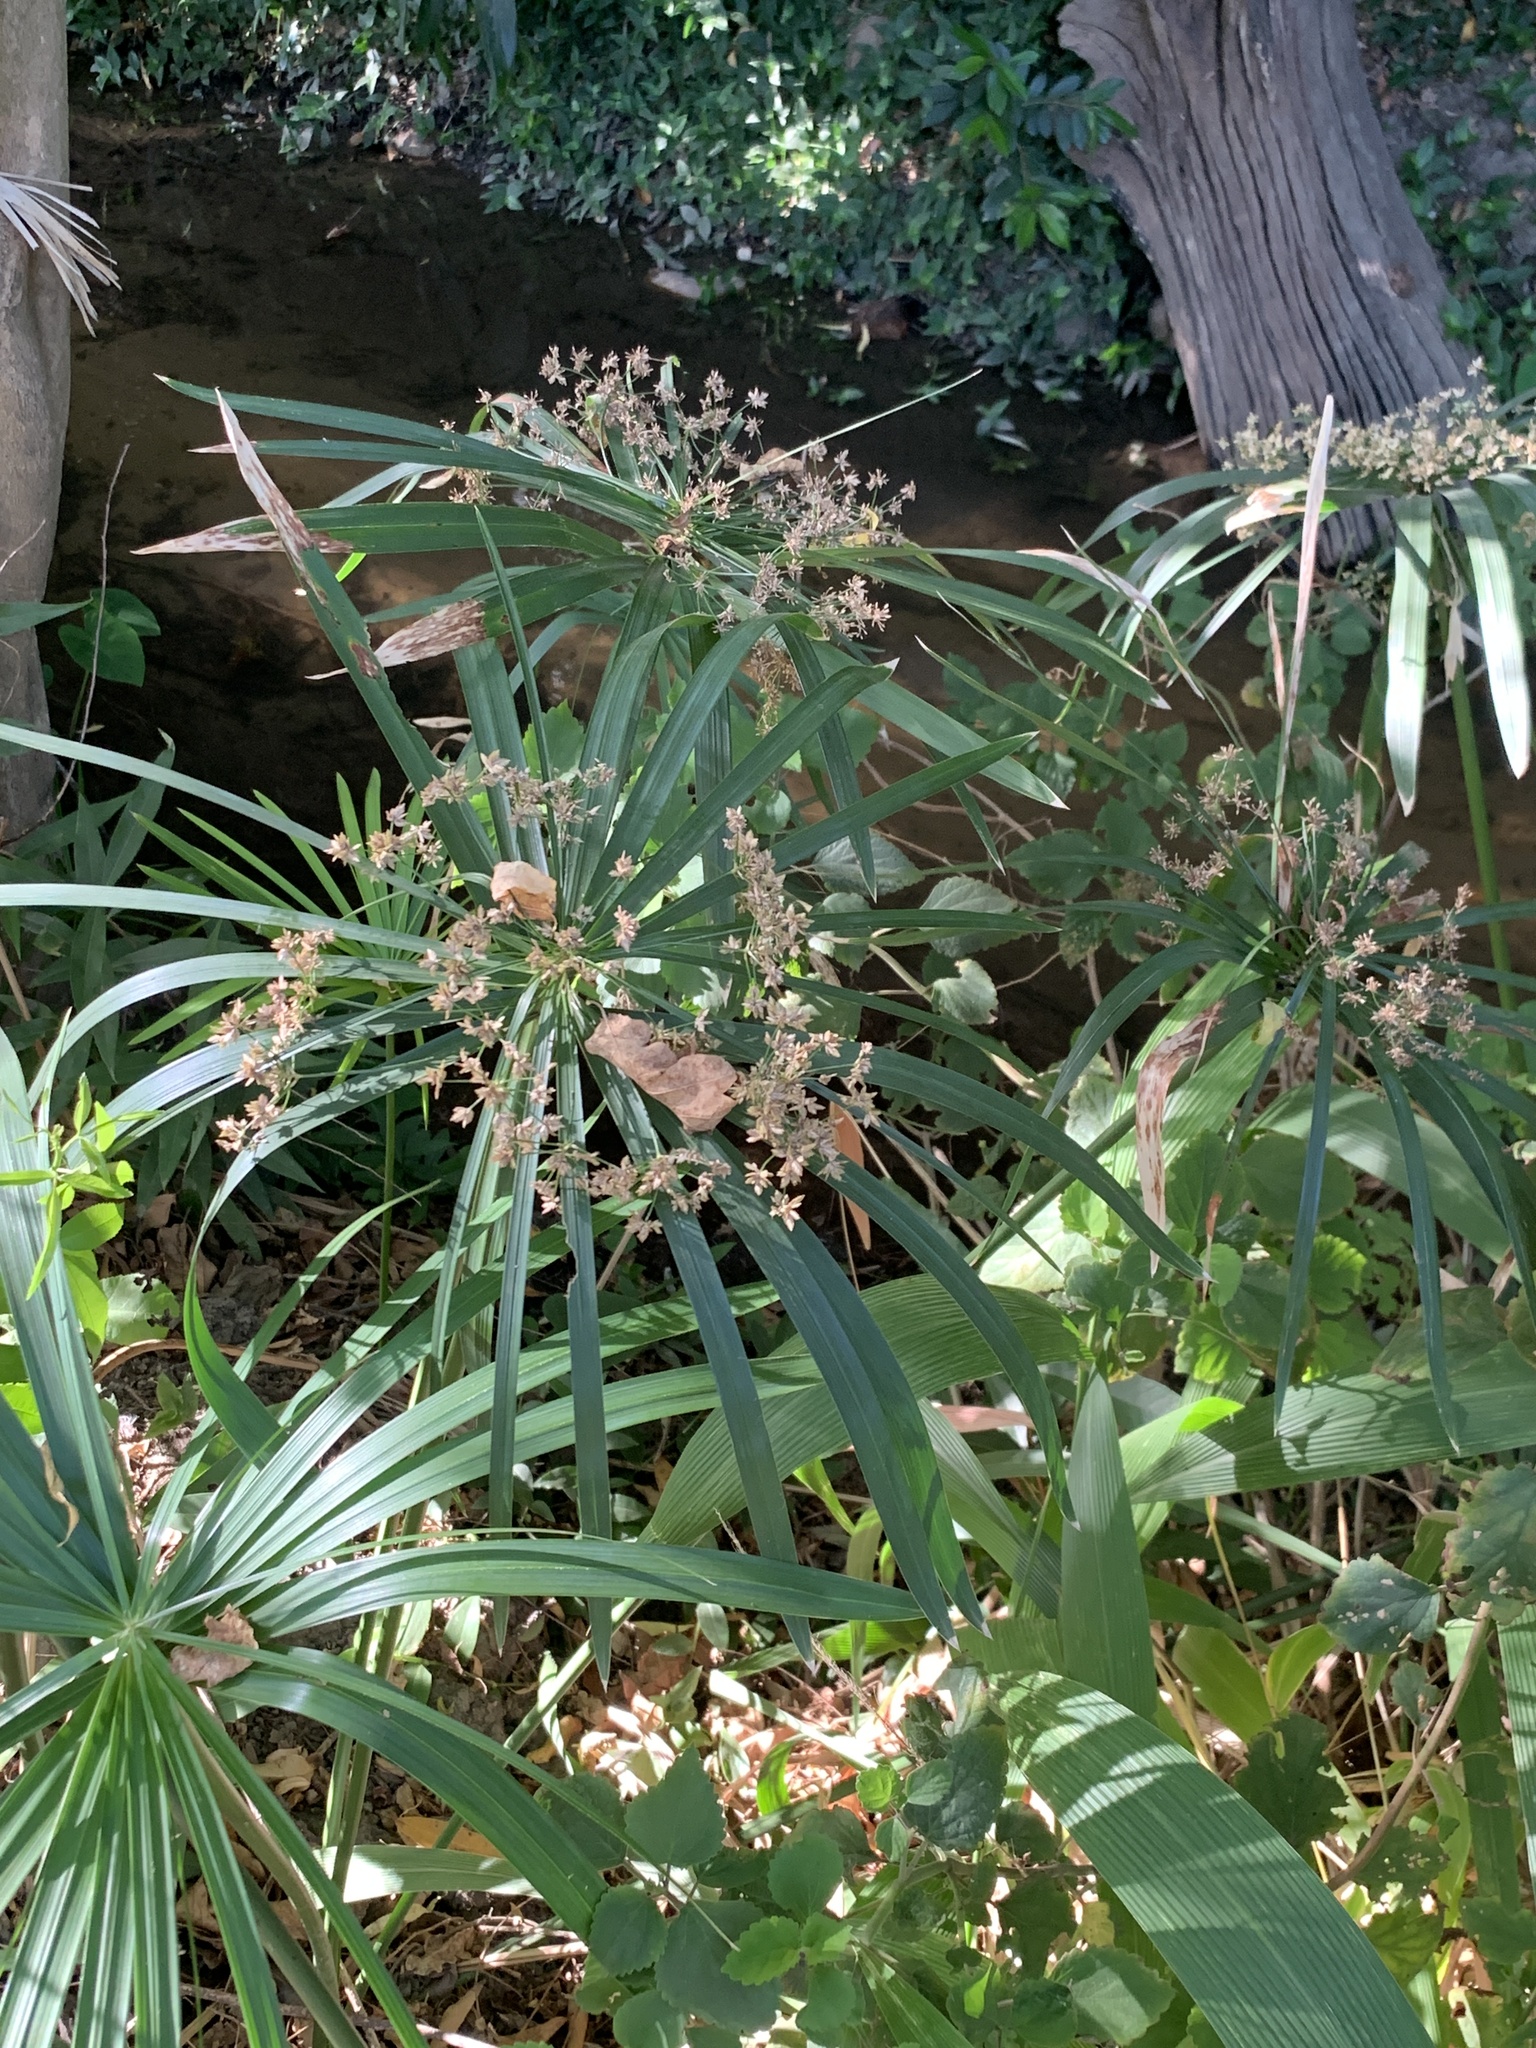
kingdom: Plantae
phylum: Tracheophyta
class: Liliopsida
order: Poales
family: Cyperaceae
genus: Cyperus
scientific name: Cyperus textilis
